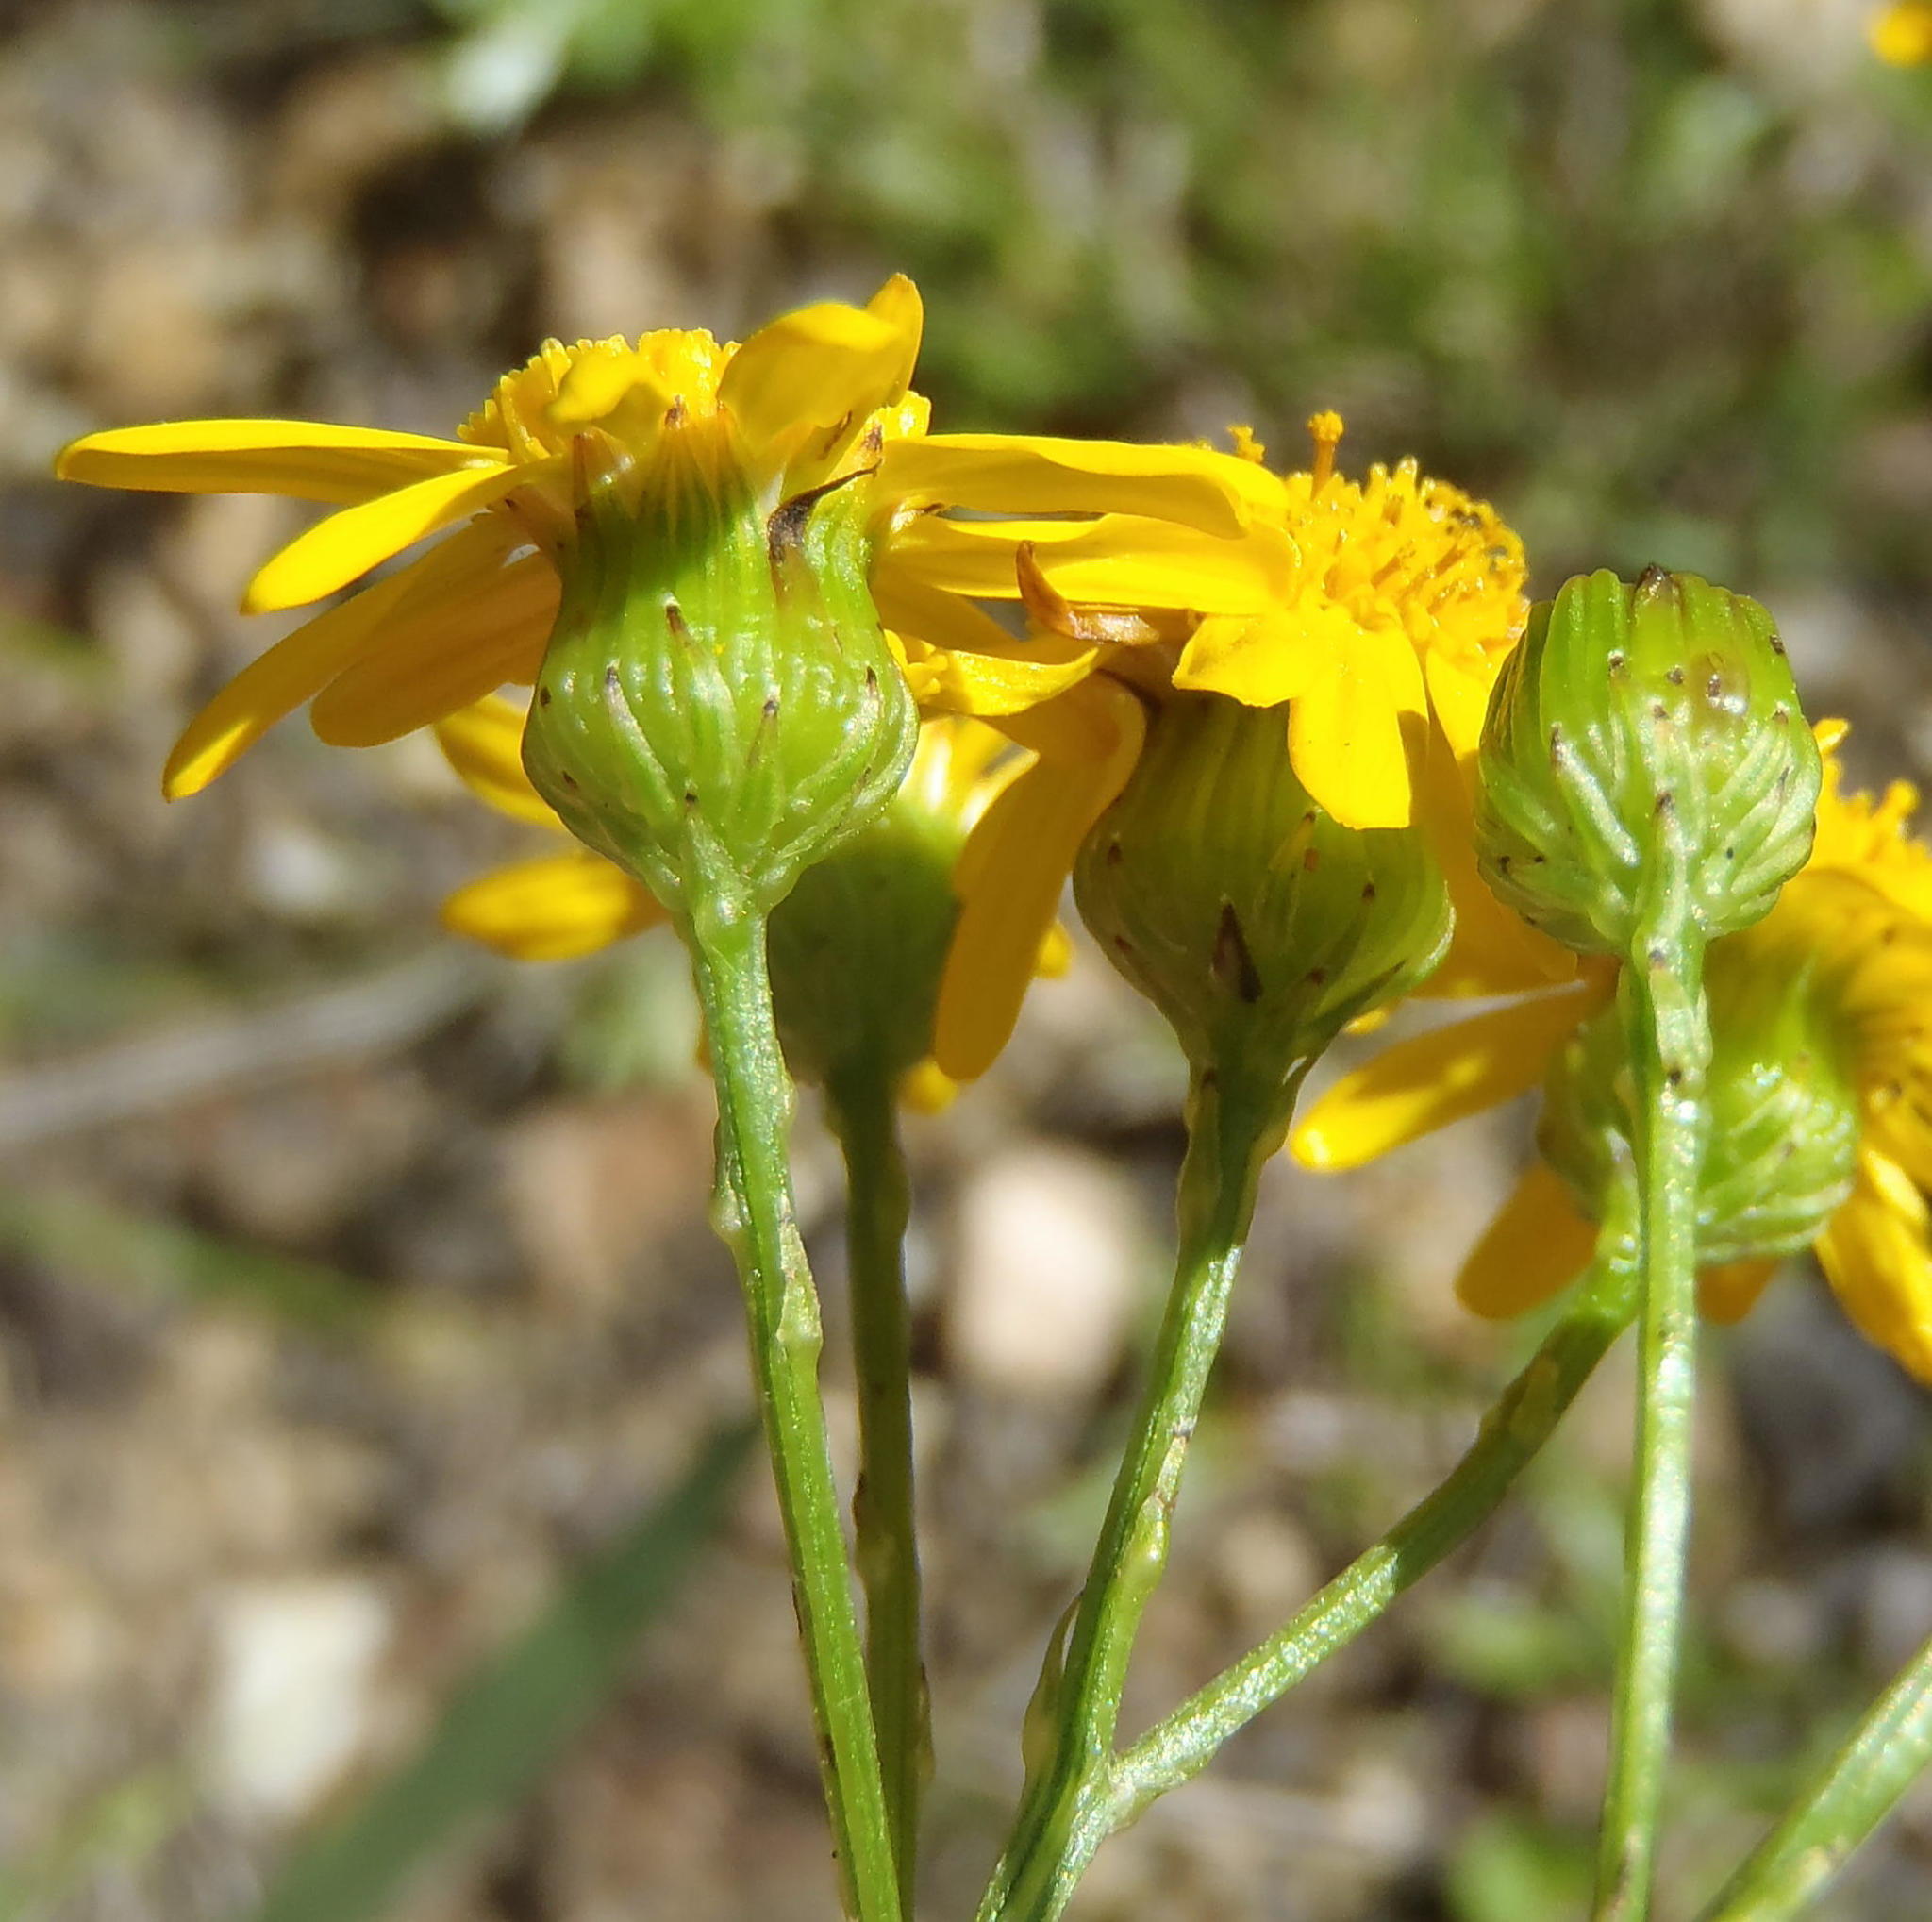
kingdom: Plantae
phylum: Tracheophyta
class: Magnoliopsida
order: Asterales
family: Asteraceae
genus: Senecio
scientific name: Senecio ilicifolius
